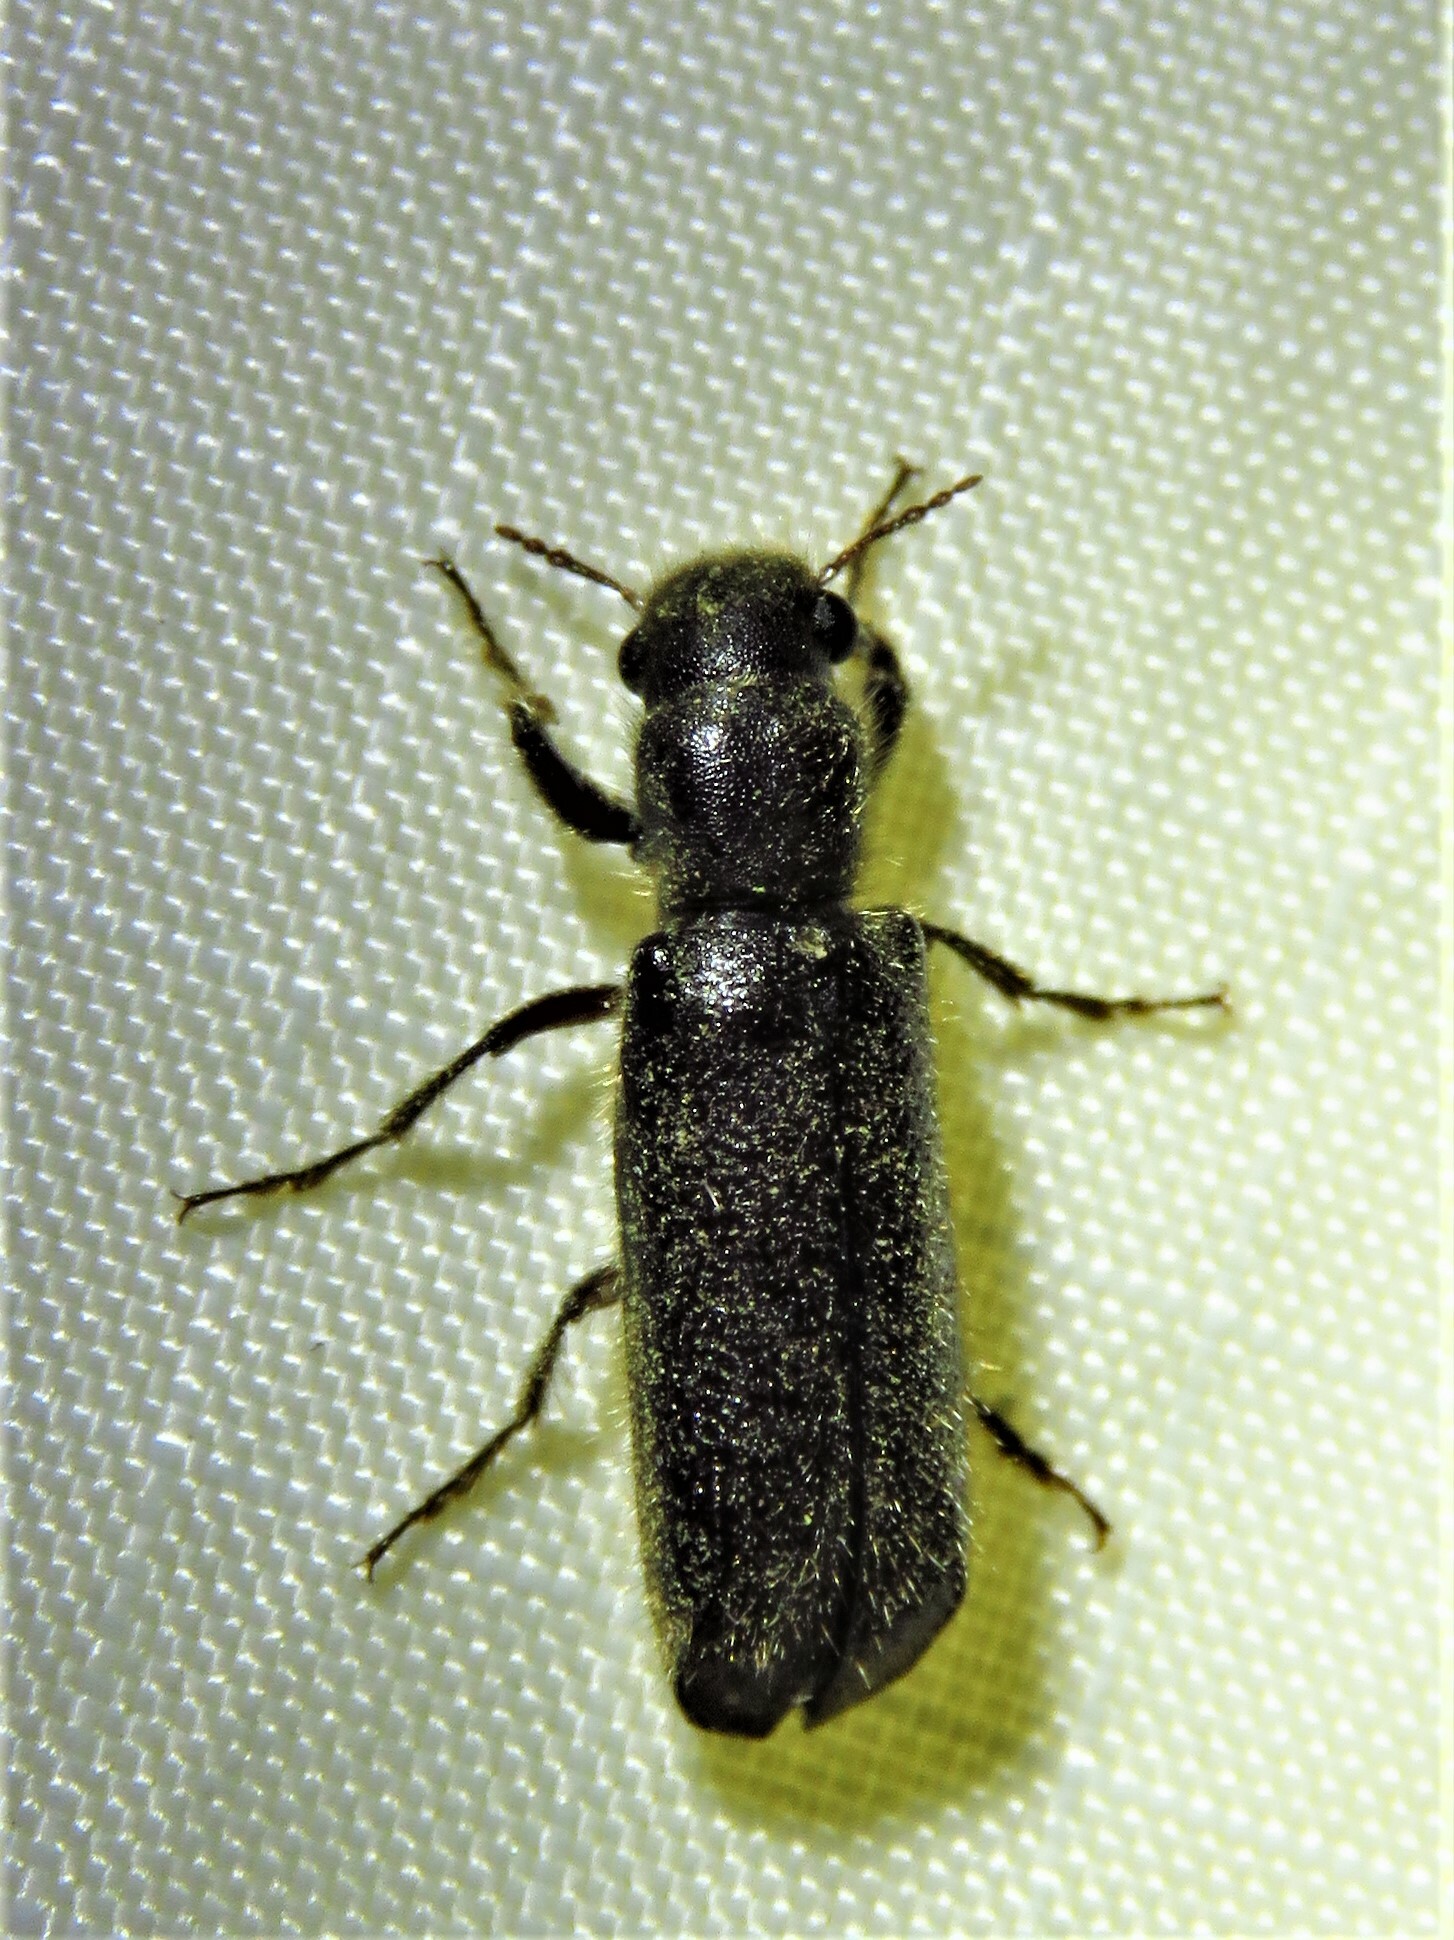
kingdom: Animalia
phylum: Arthropoda
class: Insecta
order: Coleoptera
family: Bostrichidae
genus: Melalgus
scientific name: Melalgus plicatus
